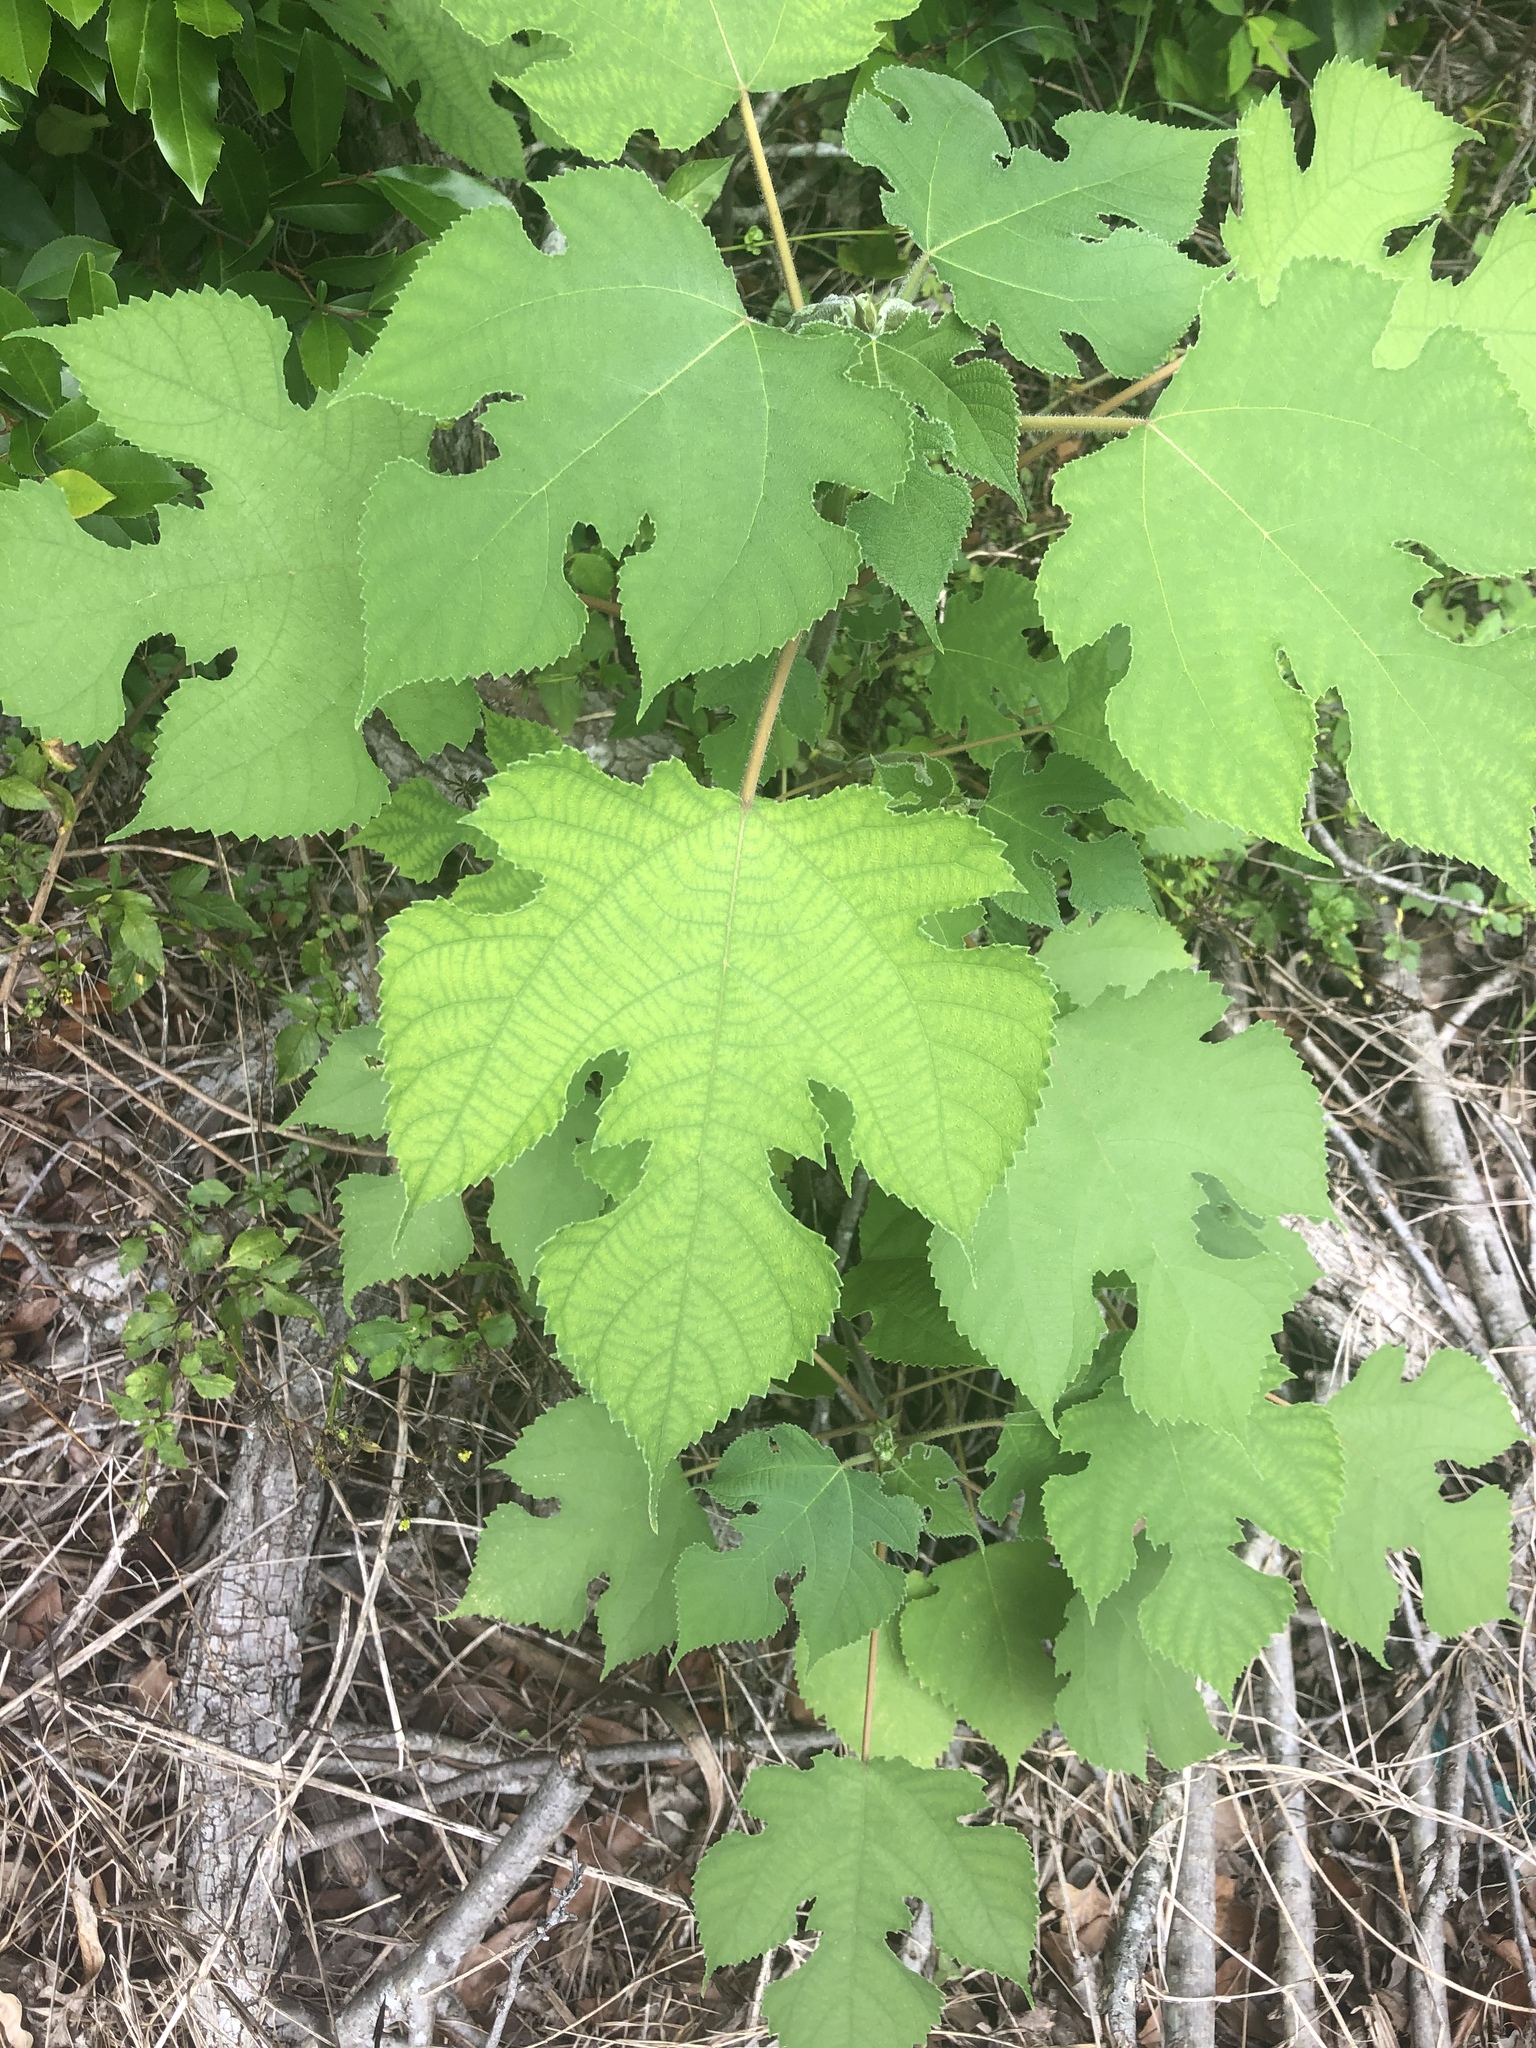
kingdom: Plantae
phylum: Tracheophyta
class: Magnoliopsida
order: Rosales
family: Moraceae
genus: Broussonetia
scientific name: Broussonetia papyrifera
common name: Paper mulberry
